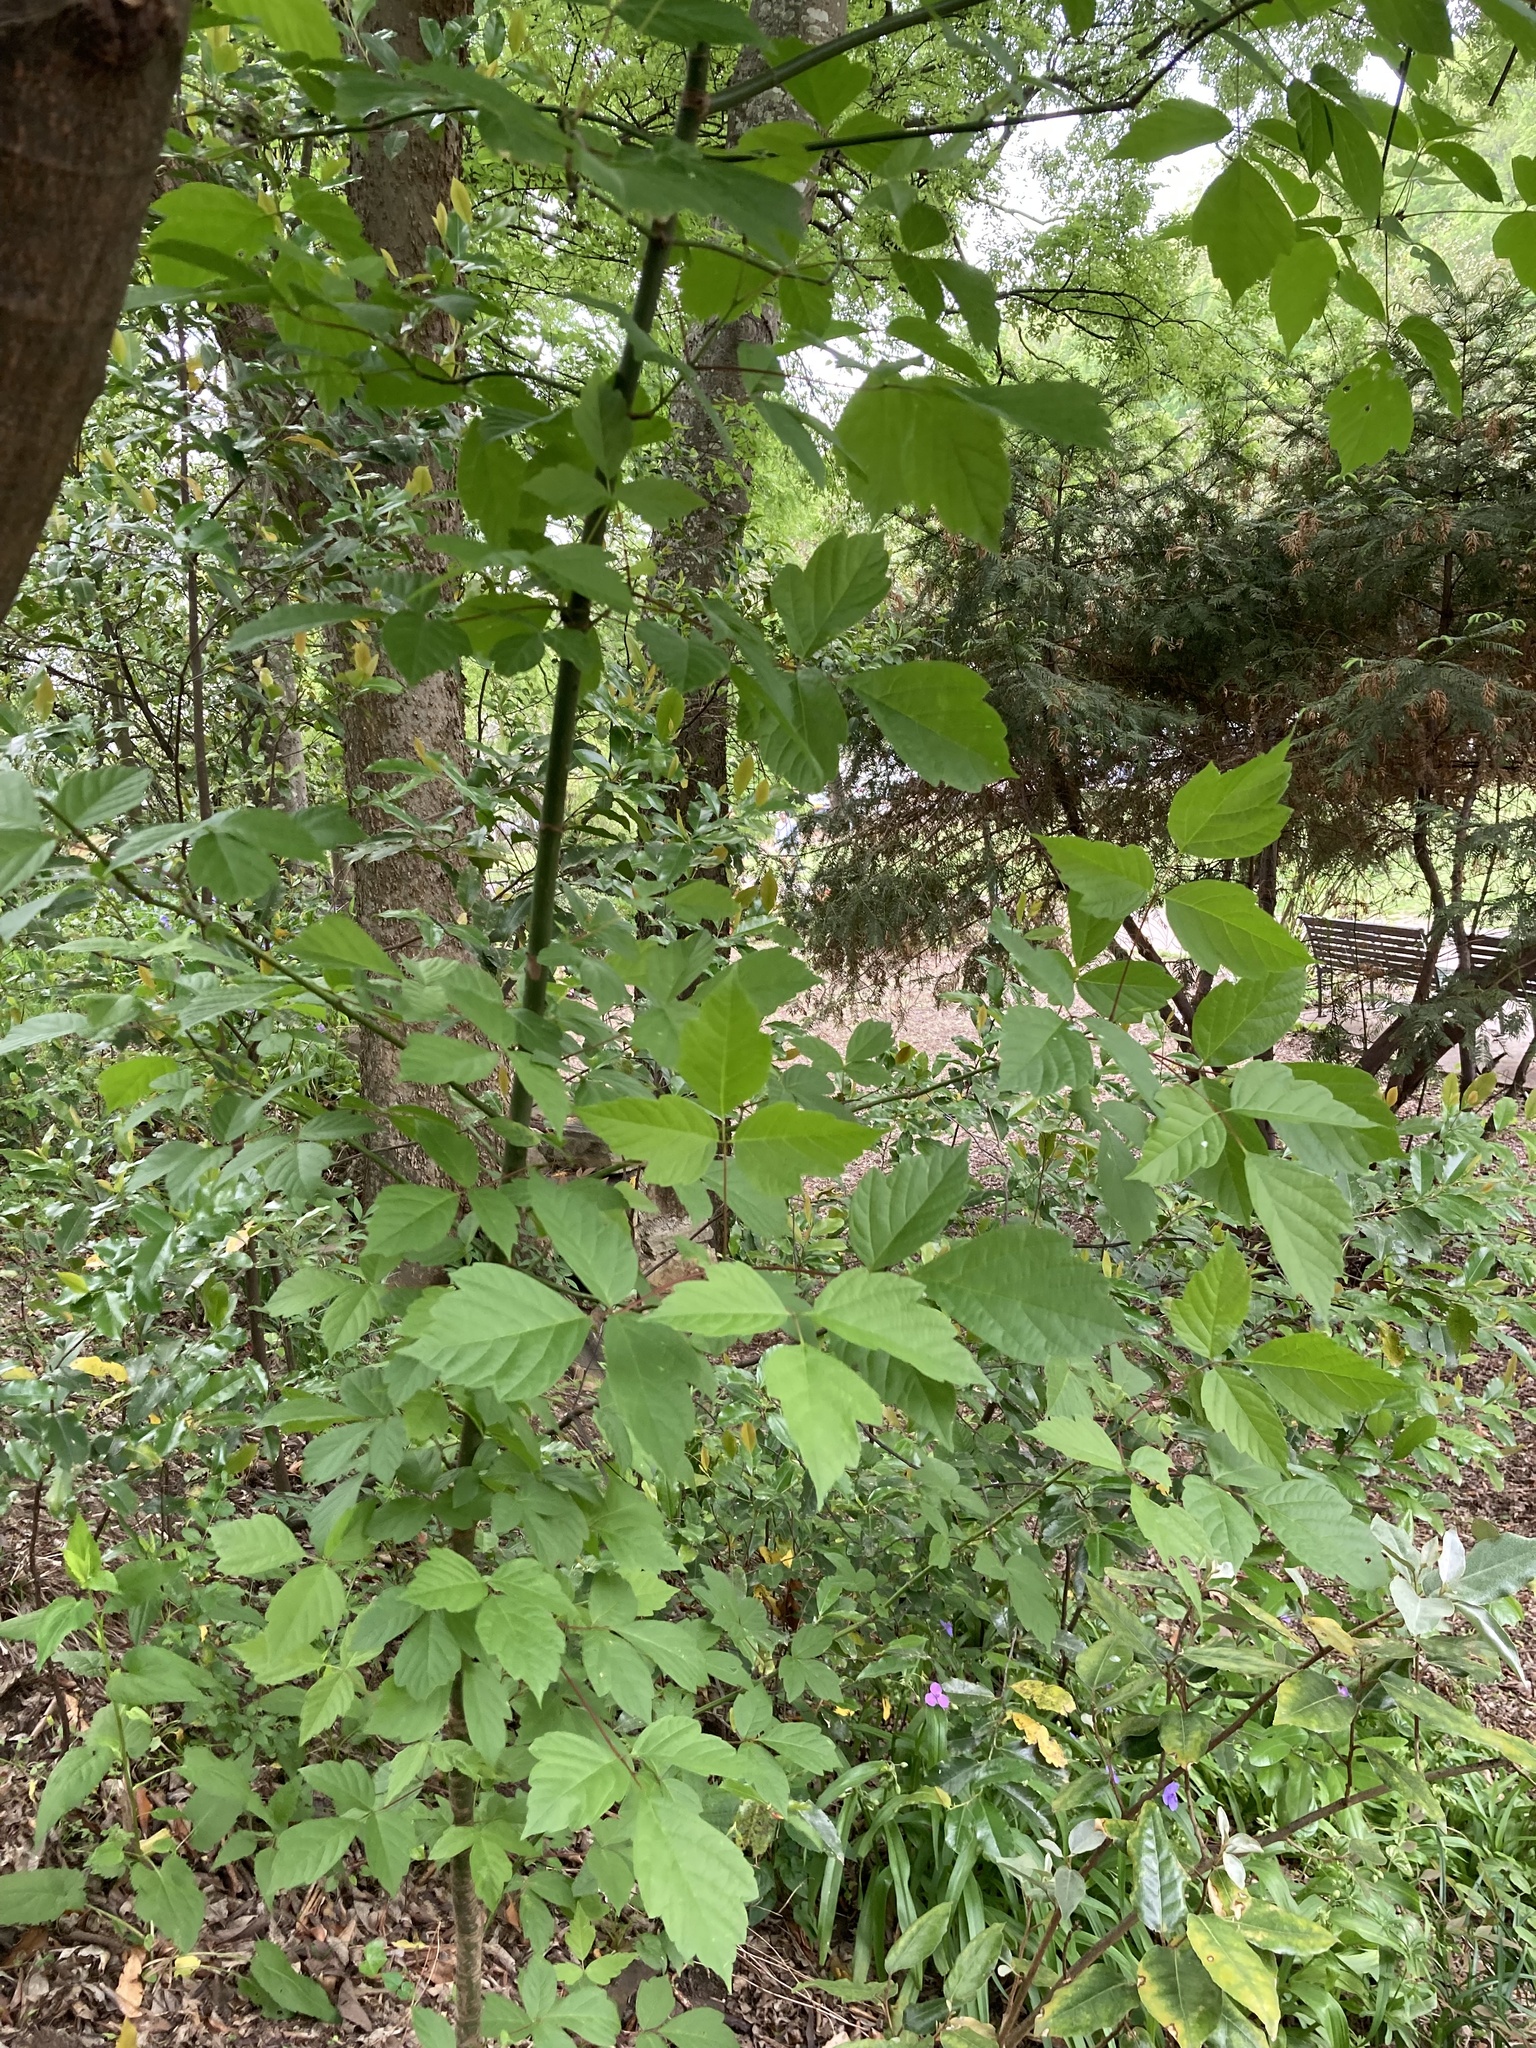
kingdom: Plantae
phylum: Tracheophyta
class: Magnoliopsida
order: Sapindales
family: Sapindaceae
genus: Acer
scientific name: Acer negundo
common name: Ashleaf maple
